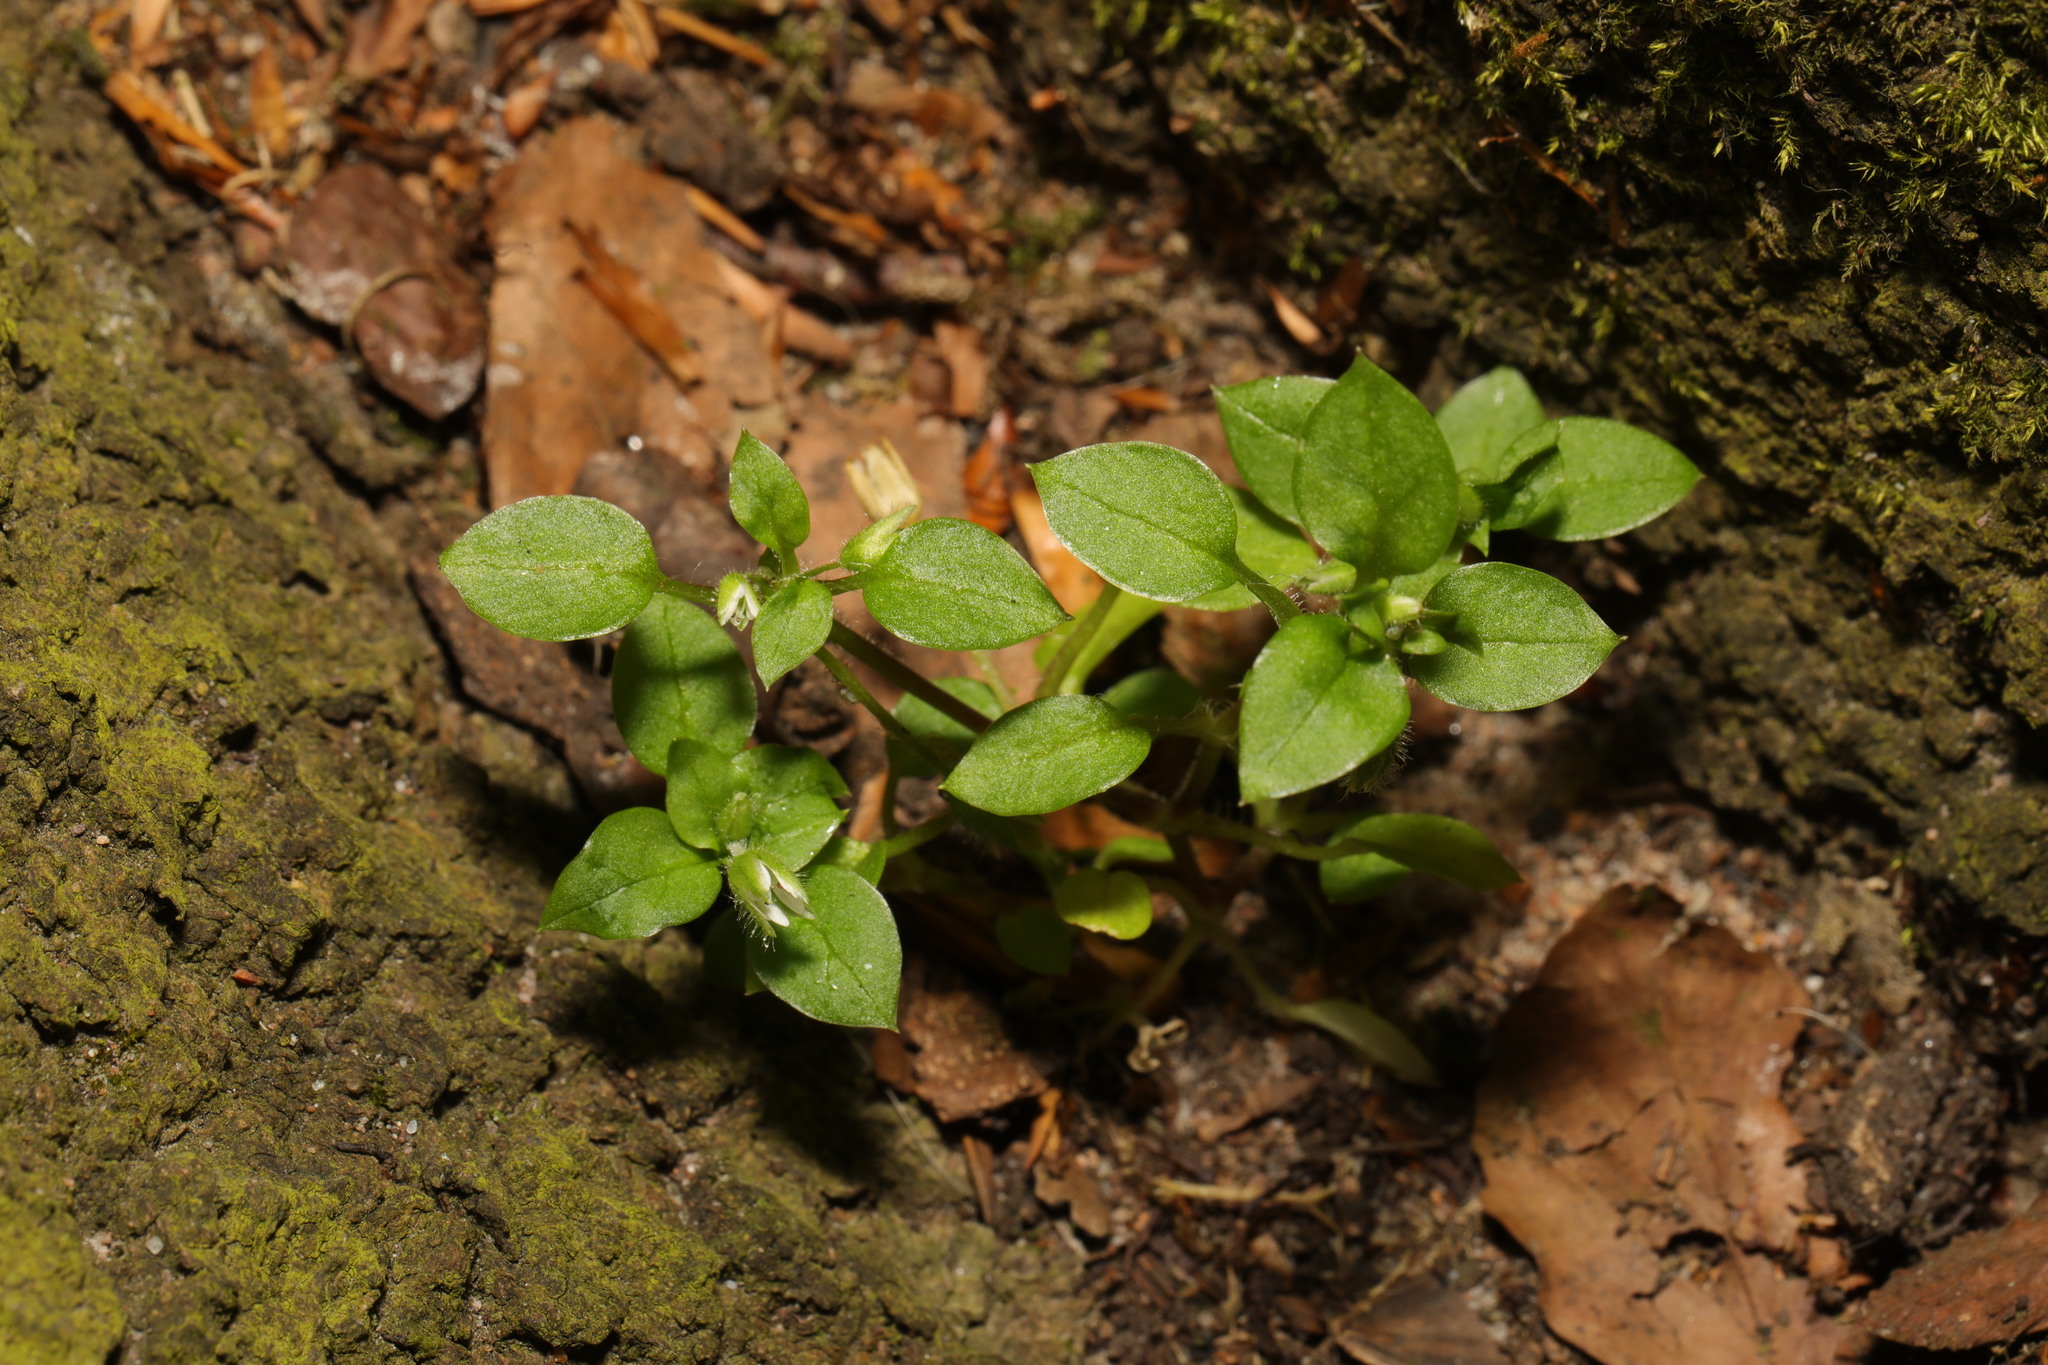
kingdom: Plantae
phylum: Tracheophyta
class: Magnoliopsida
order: Caryophyllales
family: Caryophyllaceae
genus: Stellaria
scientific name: Stellaria media
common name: Common chickweed
